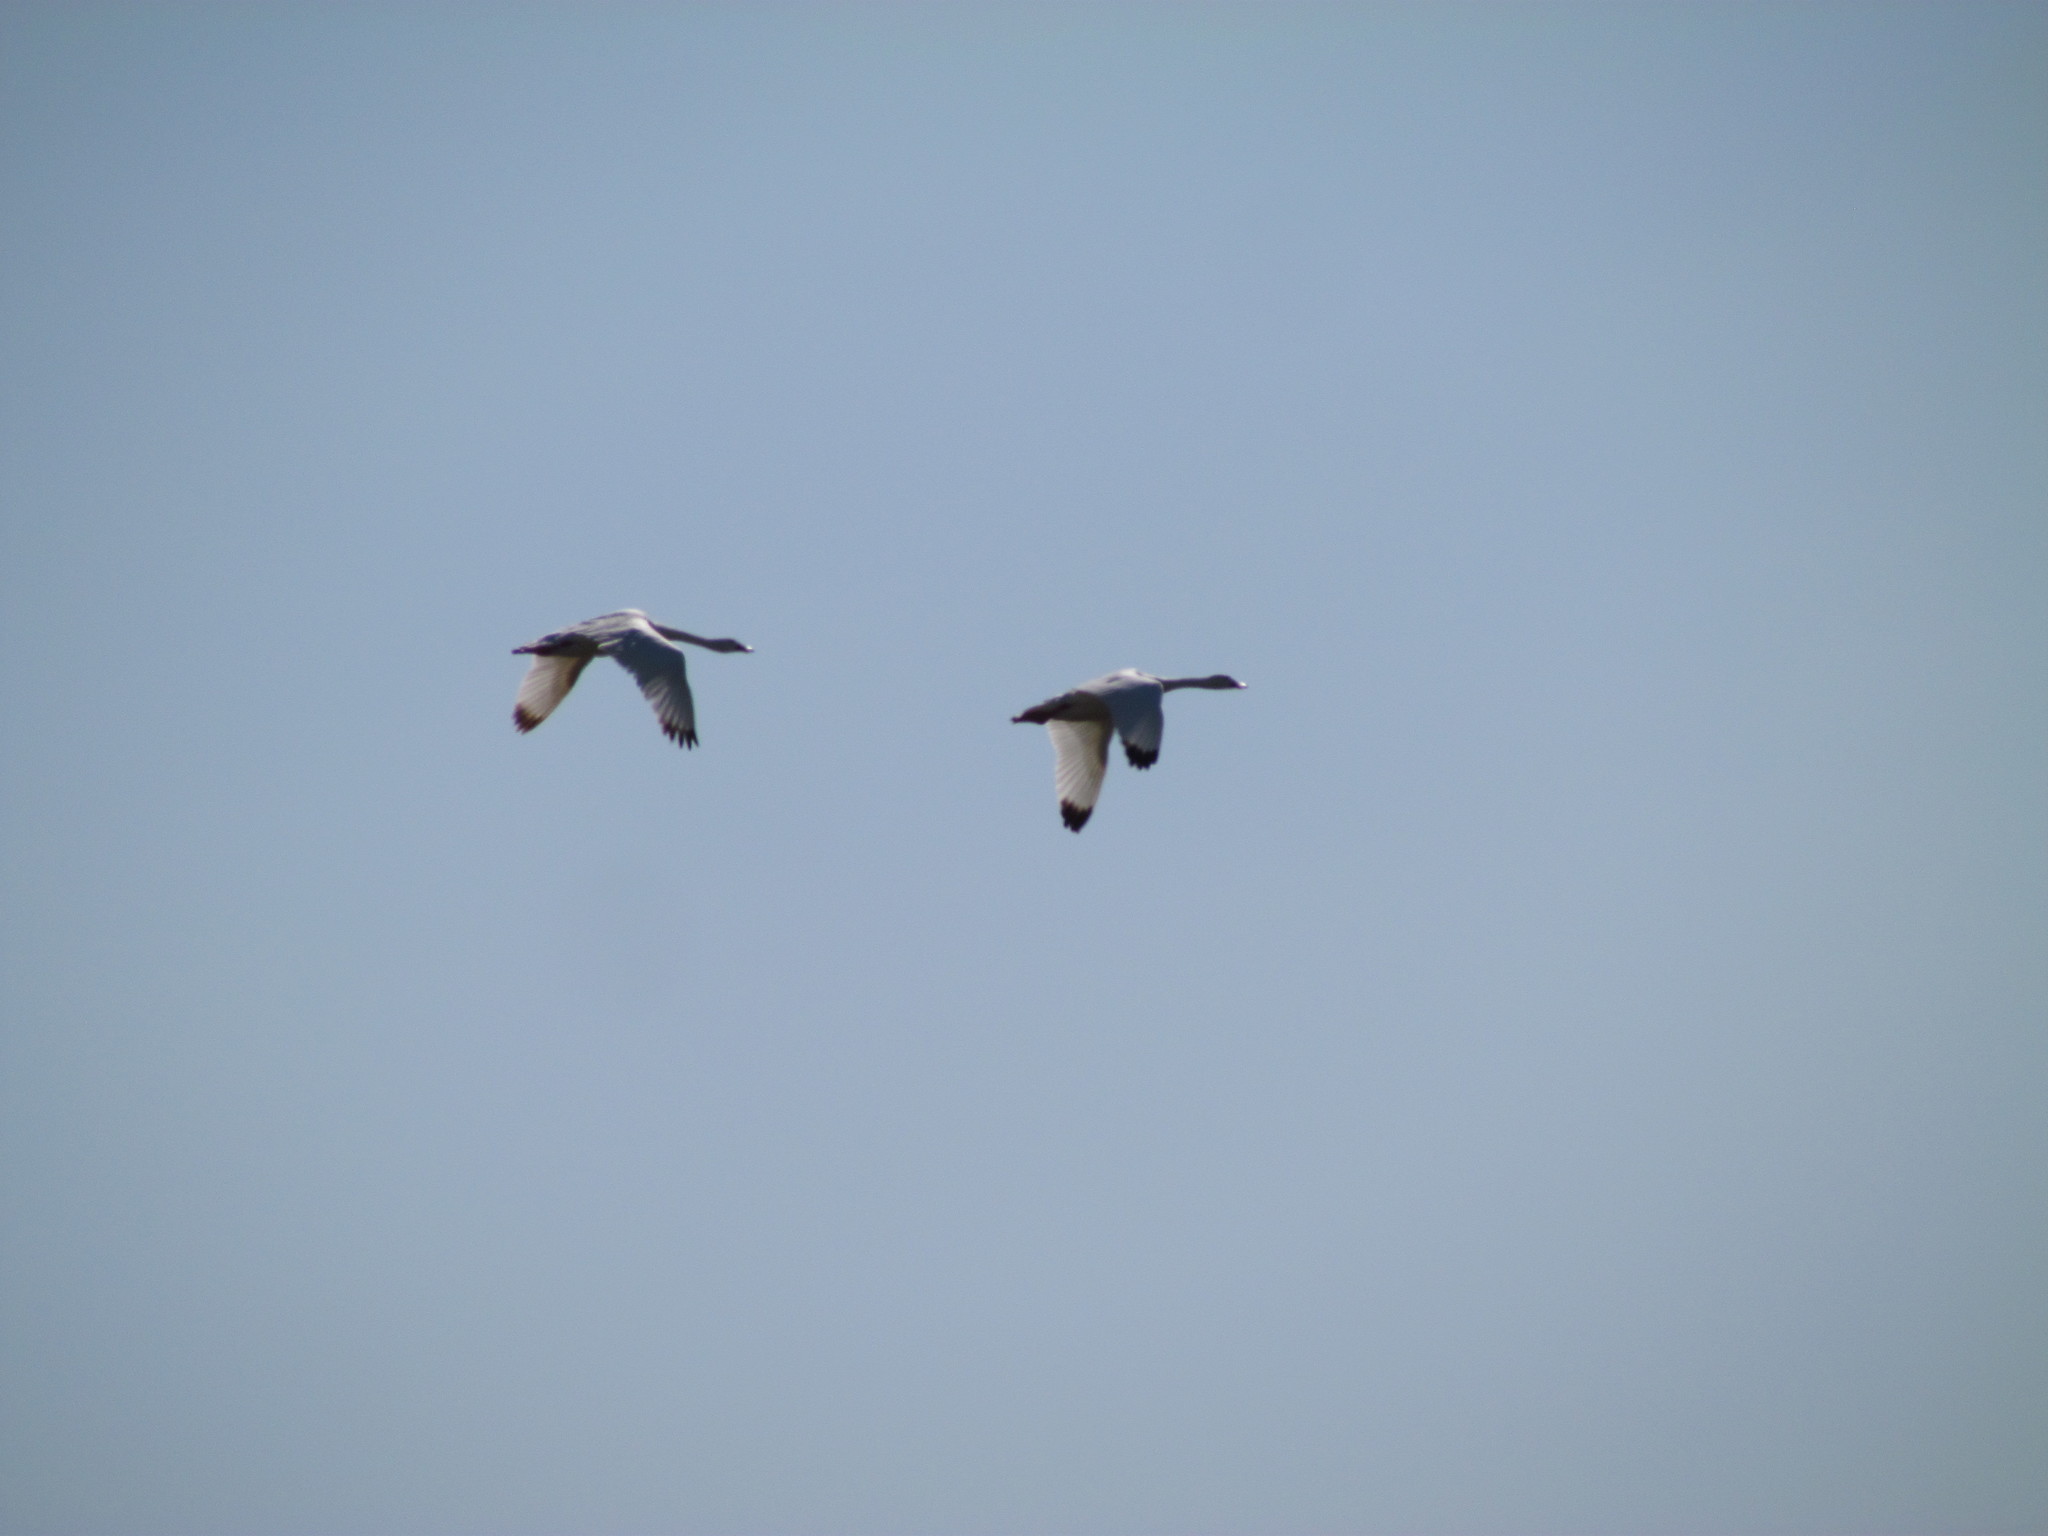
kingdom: Animalia
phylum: Chordata
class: Aves
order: Anseriformes
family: Anatidae
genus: Coscoroba
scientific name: Coscoroba coscoroba
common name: Coscoroba swan
